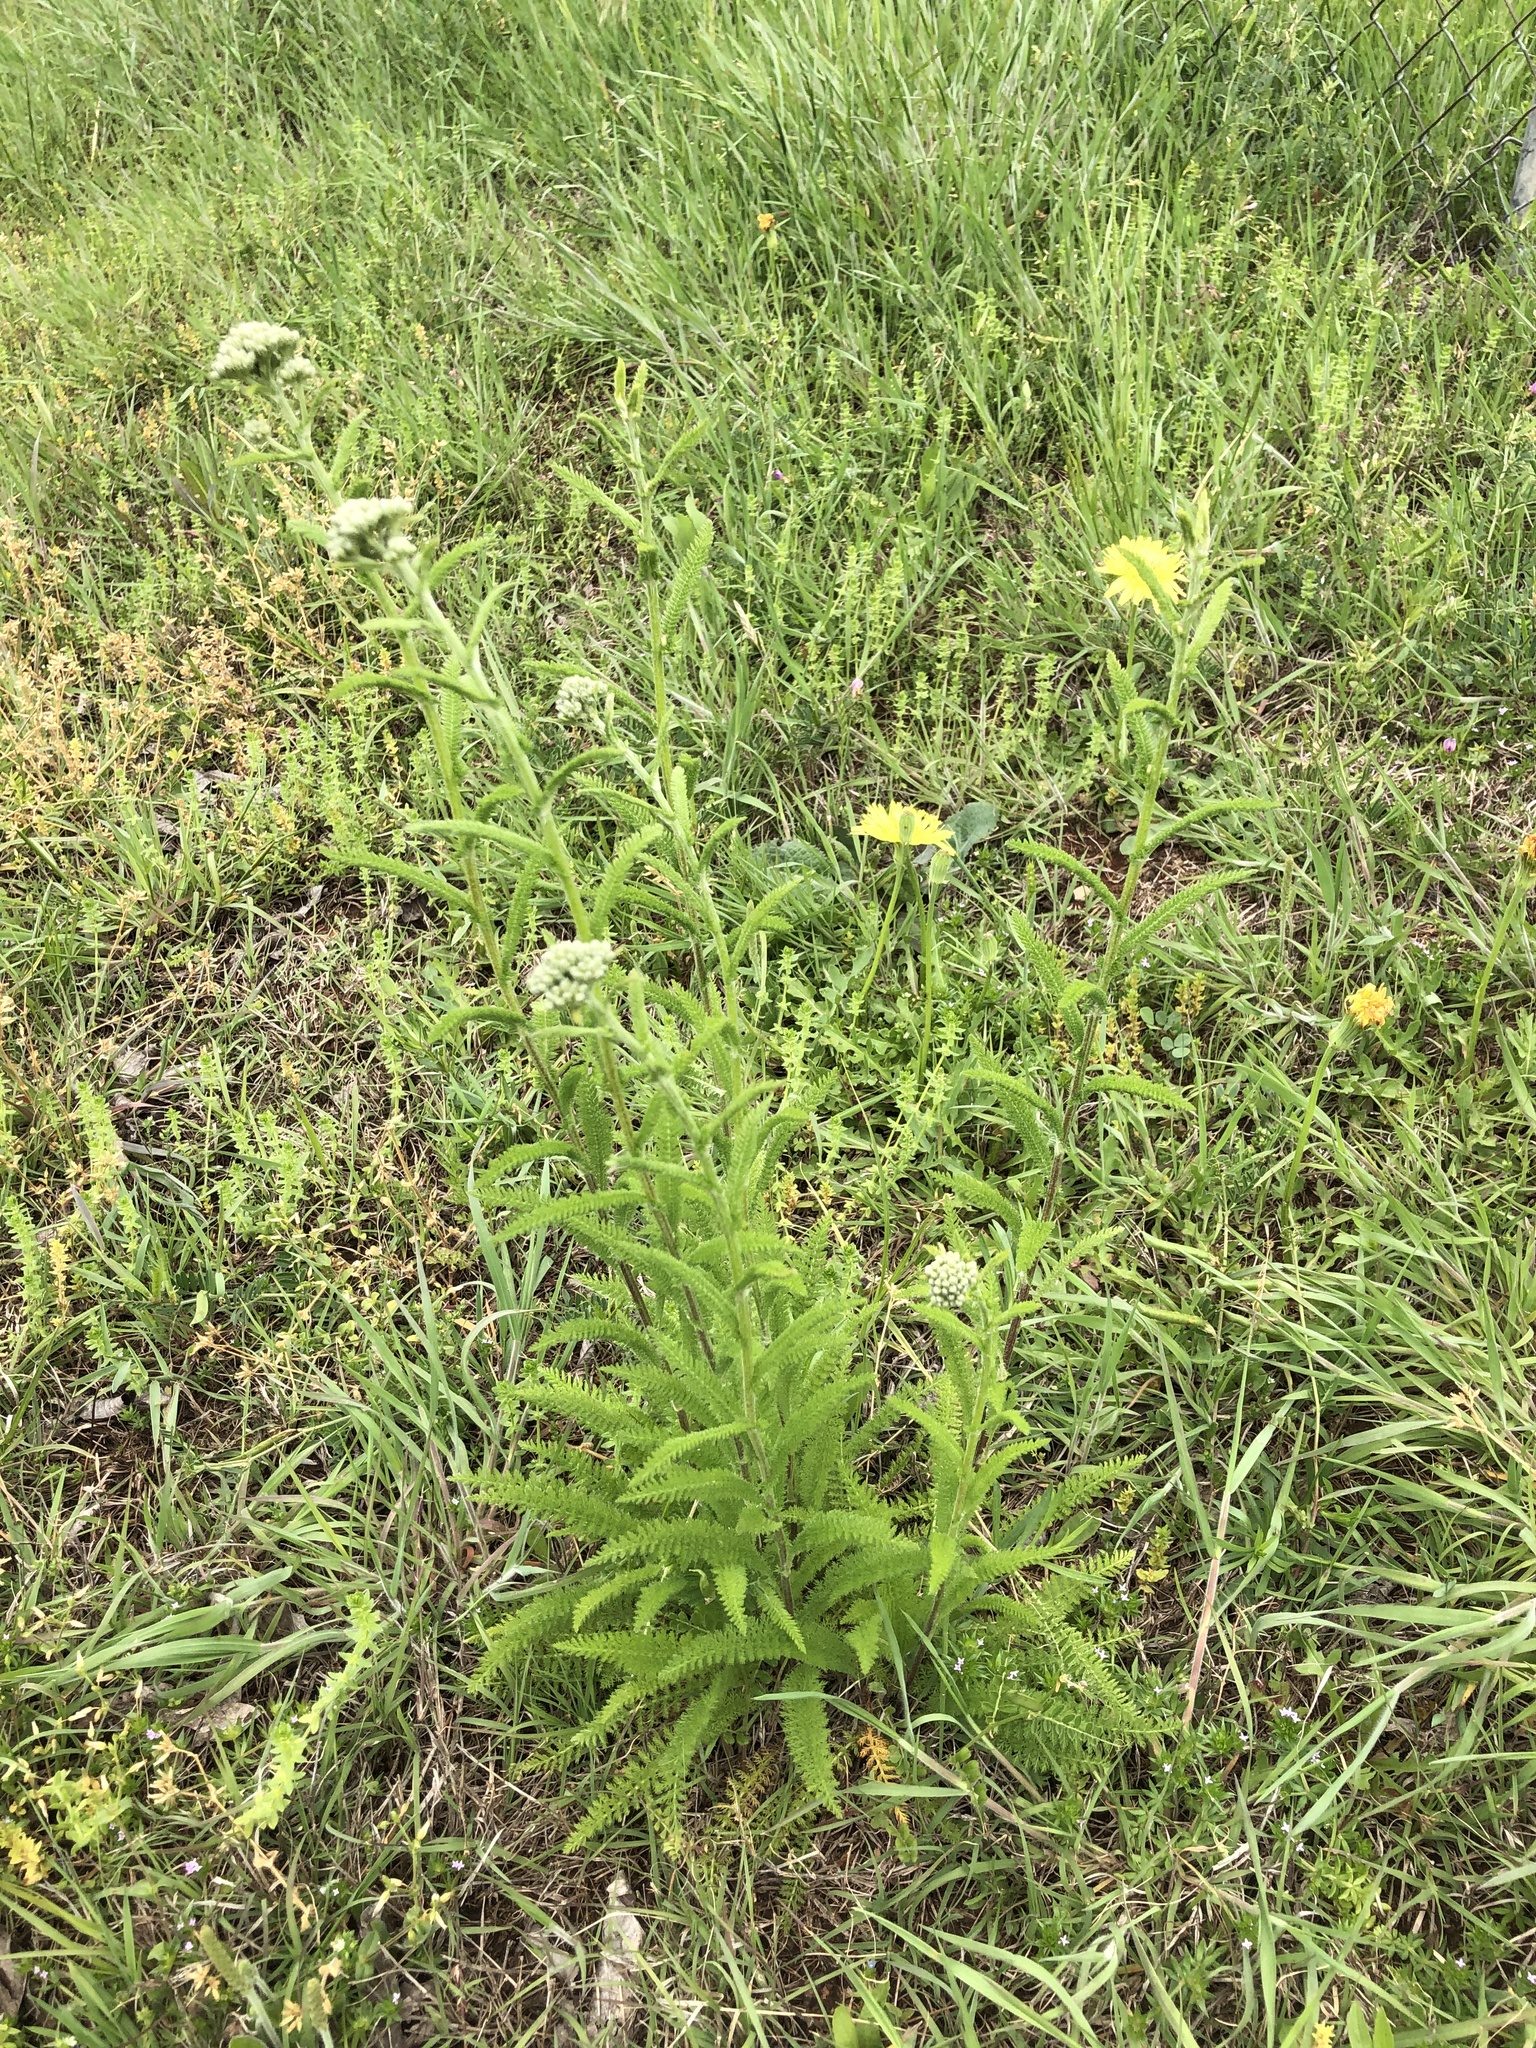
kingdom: Plantae
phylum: Tracheophyta
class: Magnoliopsida
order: Asterales
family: Asteraceae
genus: Achillea
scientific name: Achillea millefolium
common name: Yarrow
